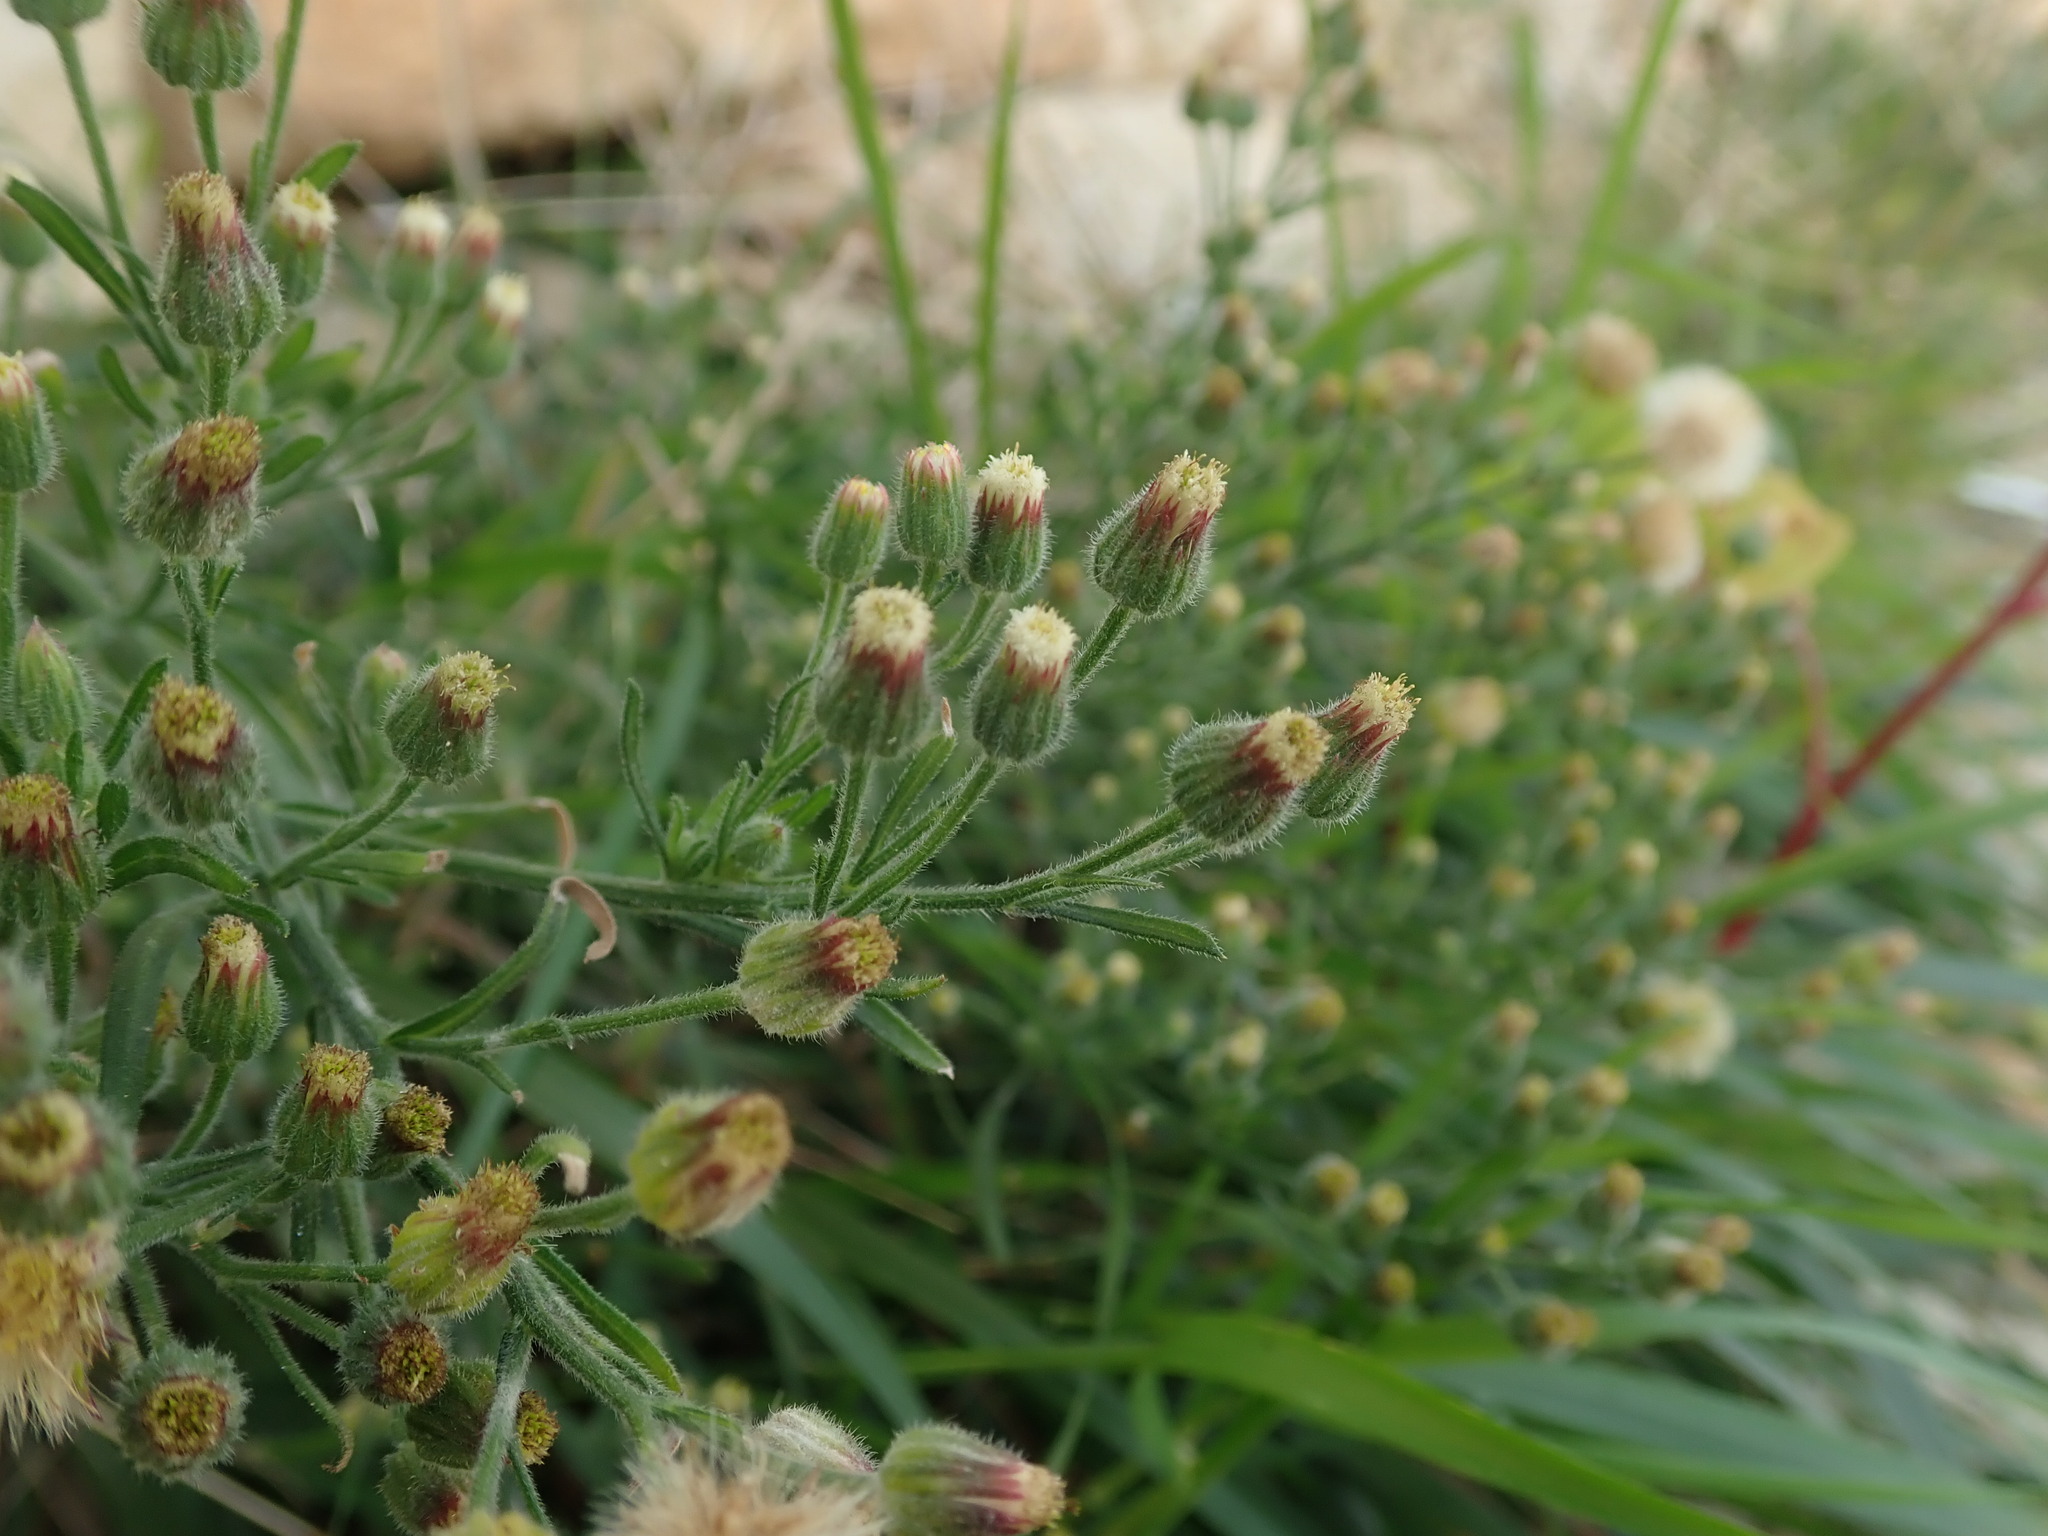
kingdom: Plantae
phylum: Tracheophyta
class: Magnoliopsida
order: Asterales
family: Asteraceae
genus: Erigeron
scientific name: Erigeron bonariensis
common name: Argentine fleabane
